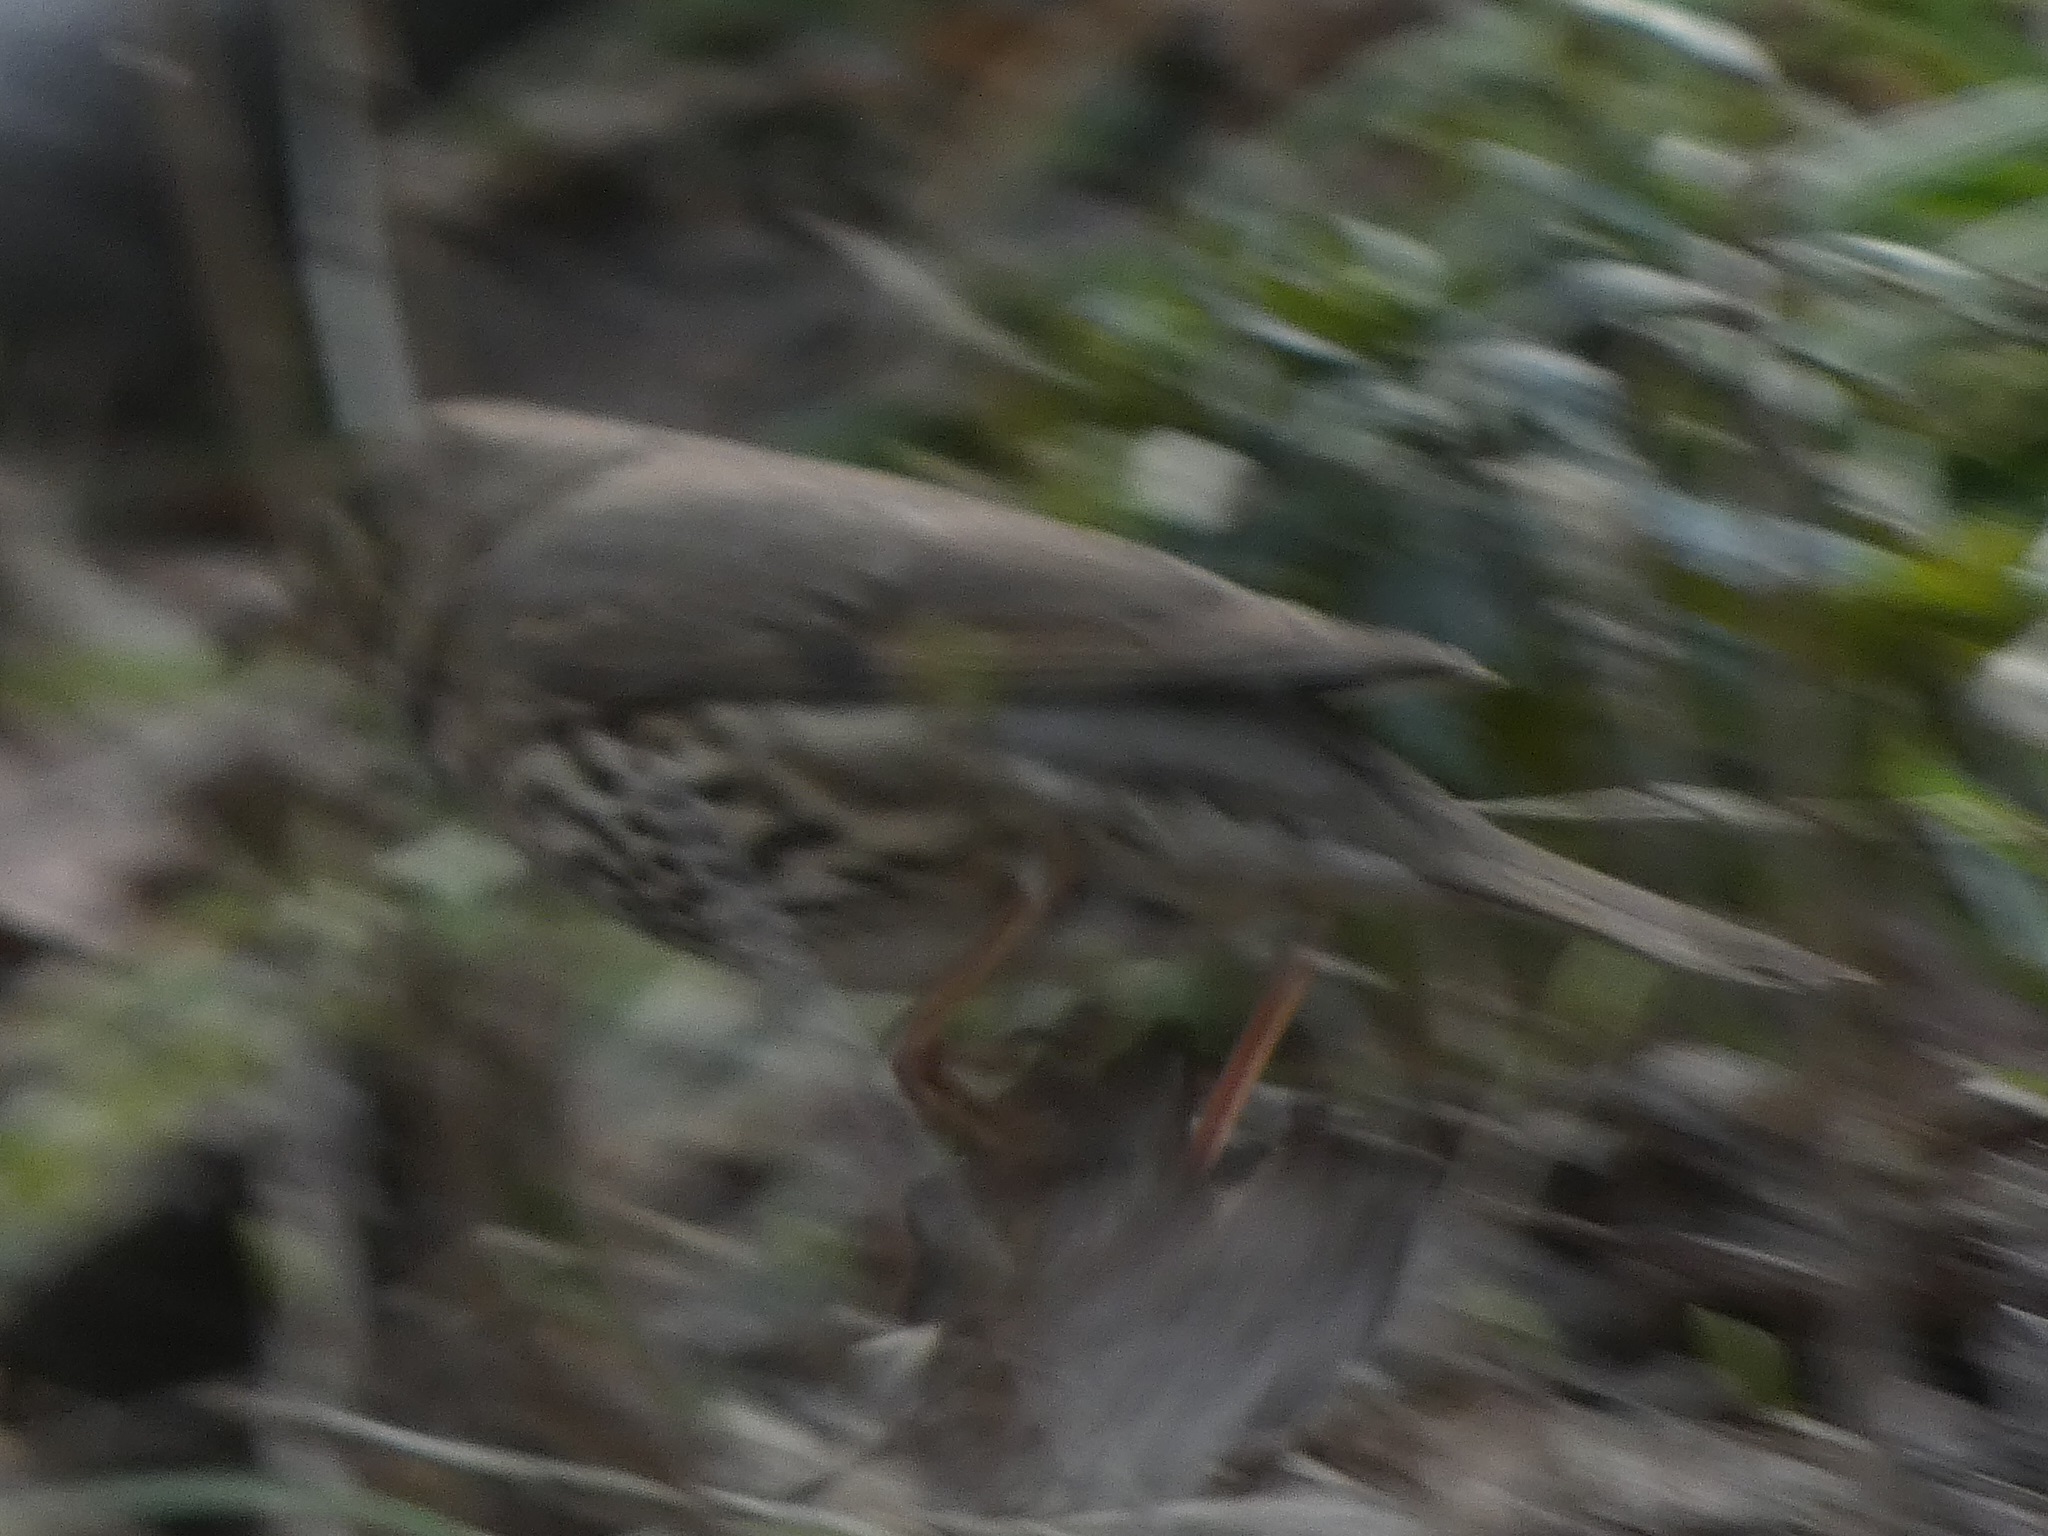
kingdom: Animalia
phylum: Chordata
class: Aves
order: Passeriformes
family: Turdidae
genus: Turdus
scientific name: Turdus philomelos
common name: Song thrush
